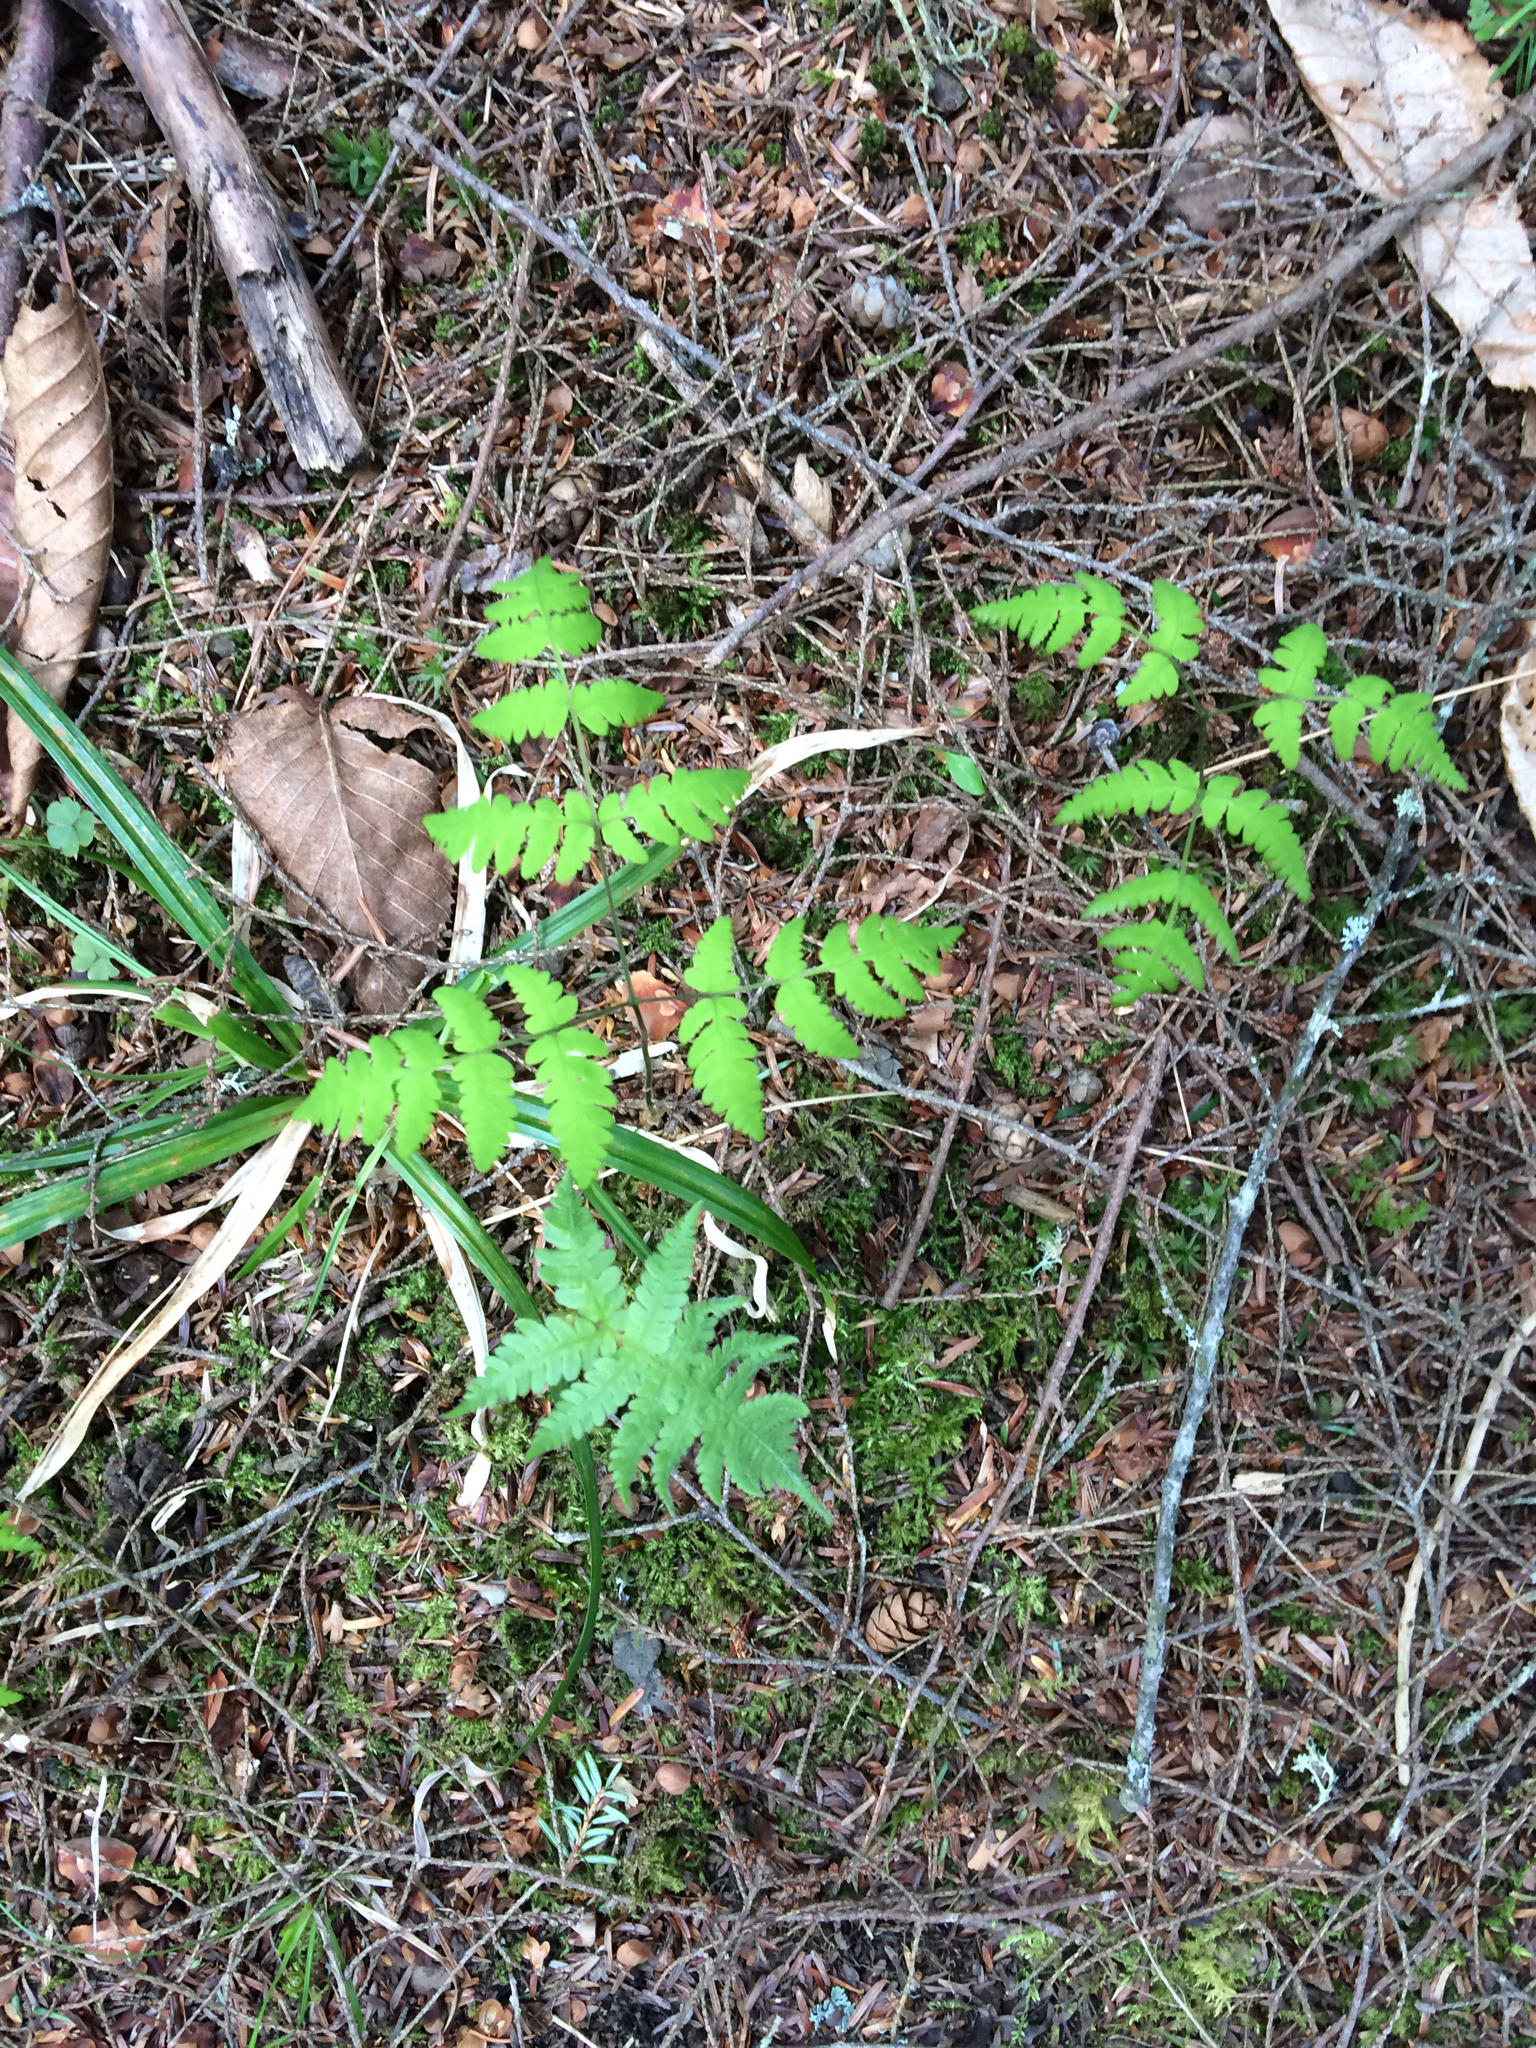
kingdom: Plantae
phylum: Tracheophyta
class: Polypodiopsida
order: Polypodiales
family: Cystopteridaceae
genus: Gymnocarpium
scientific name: Gymnocarpium dryopteris
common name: Oak fern
